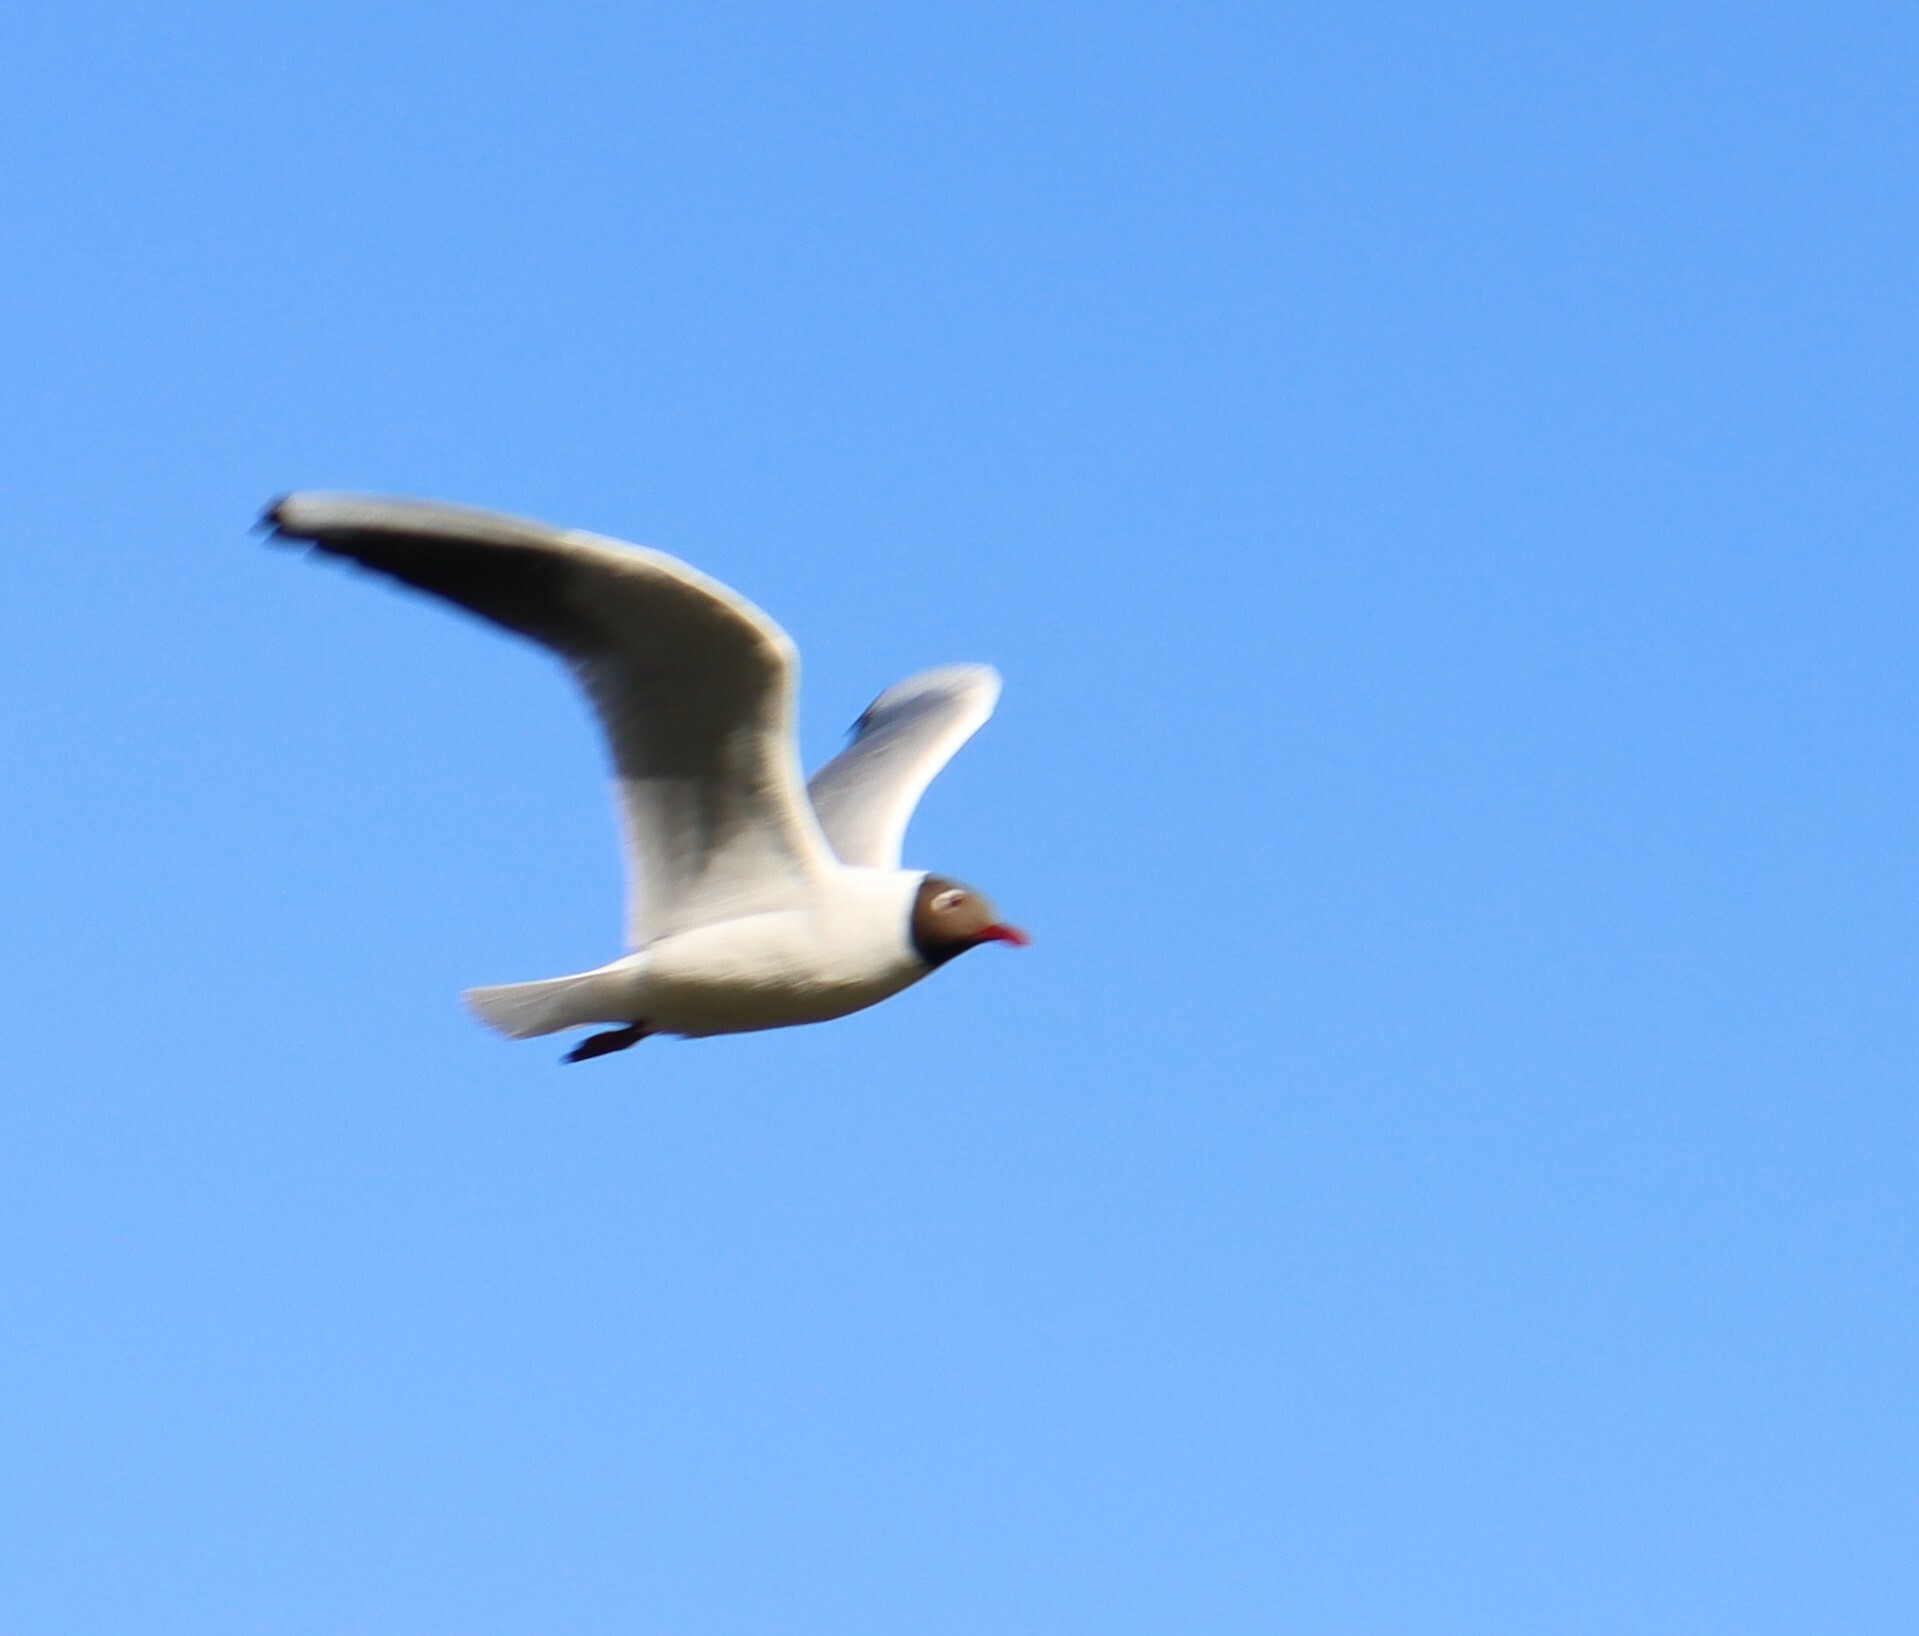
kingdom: Animalia
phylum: Chordata
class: Aves
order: Charadriiformes
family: Laridae
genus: Chroicocephalus
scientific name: Chroicocephalus ridibundus
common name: Black-headed gull
